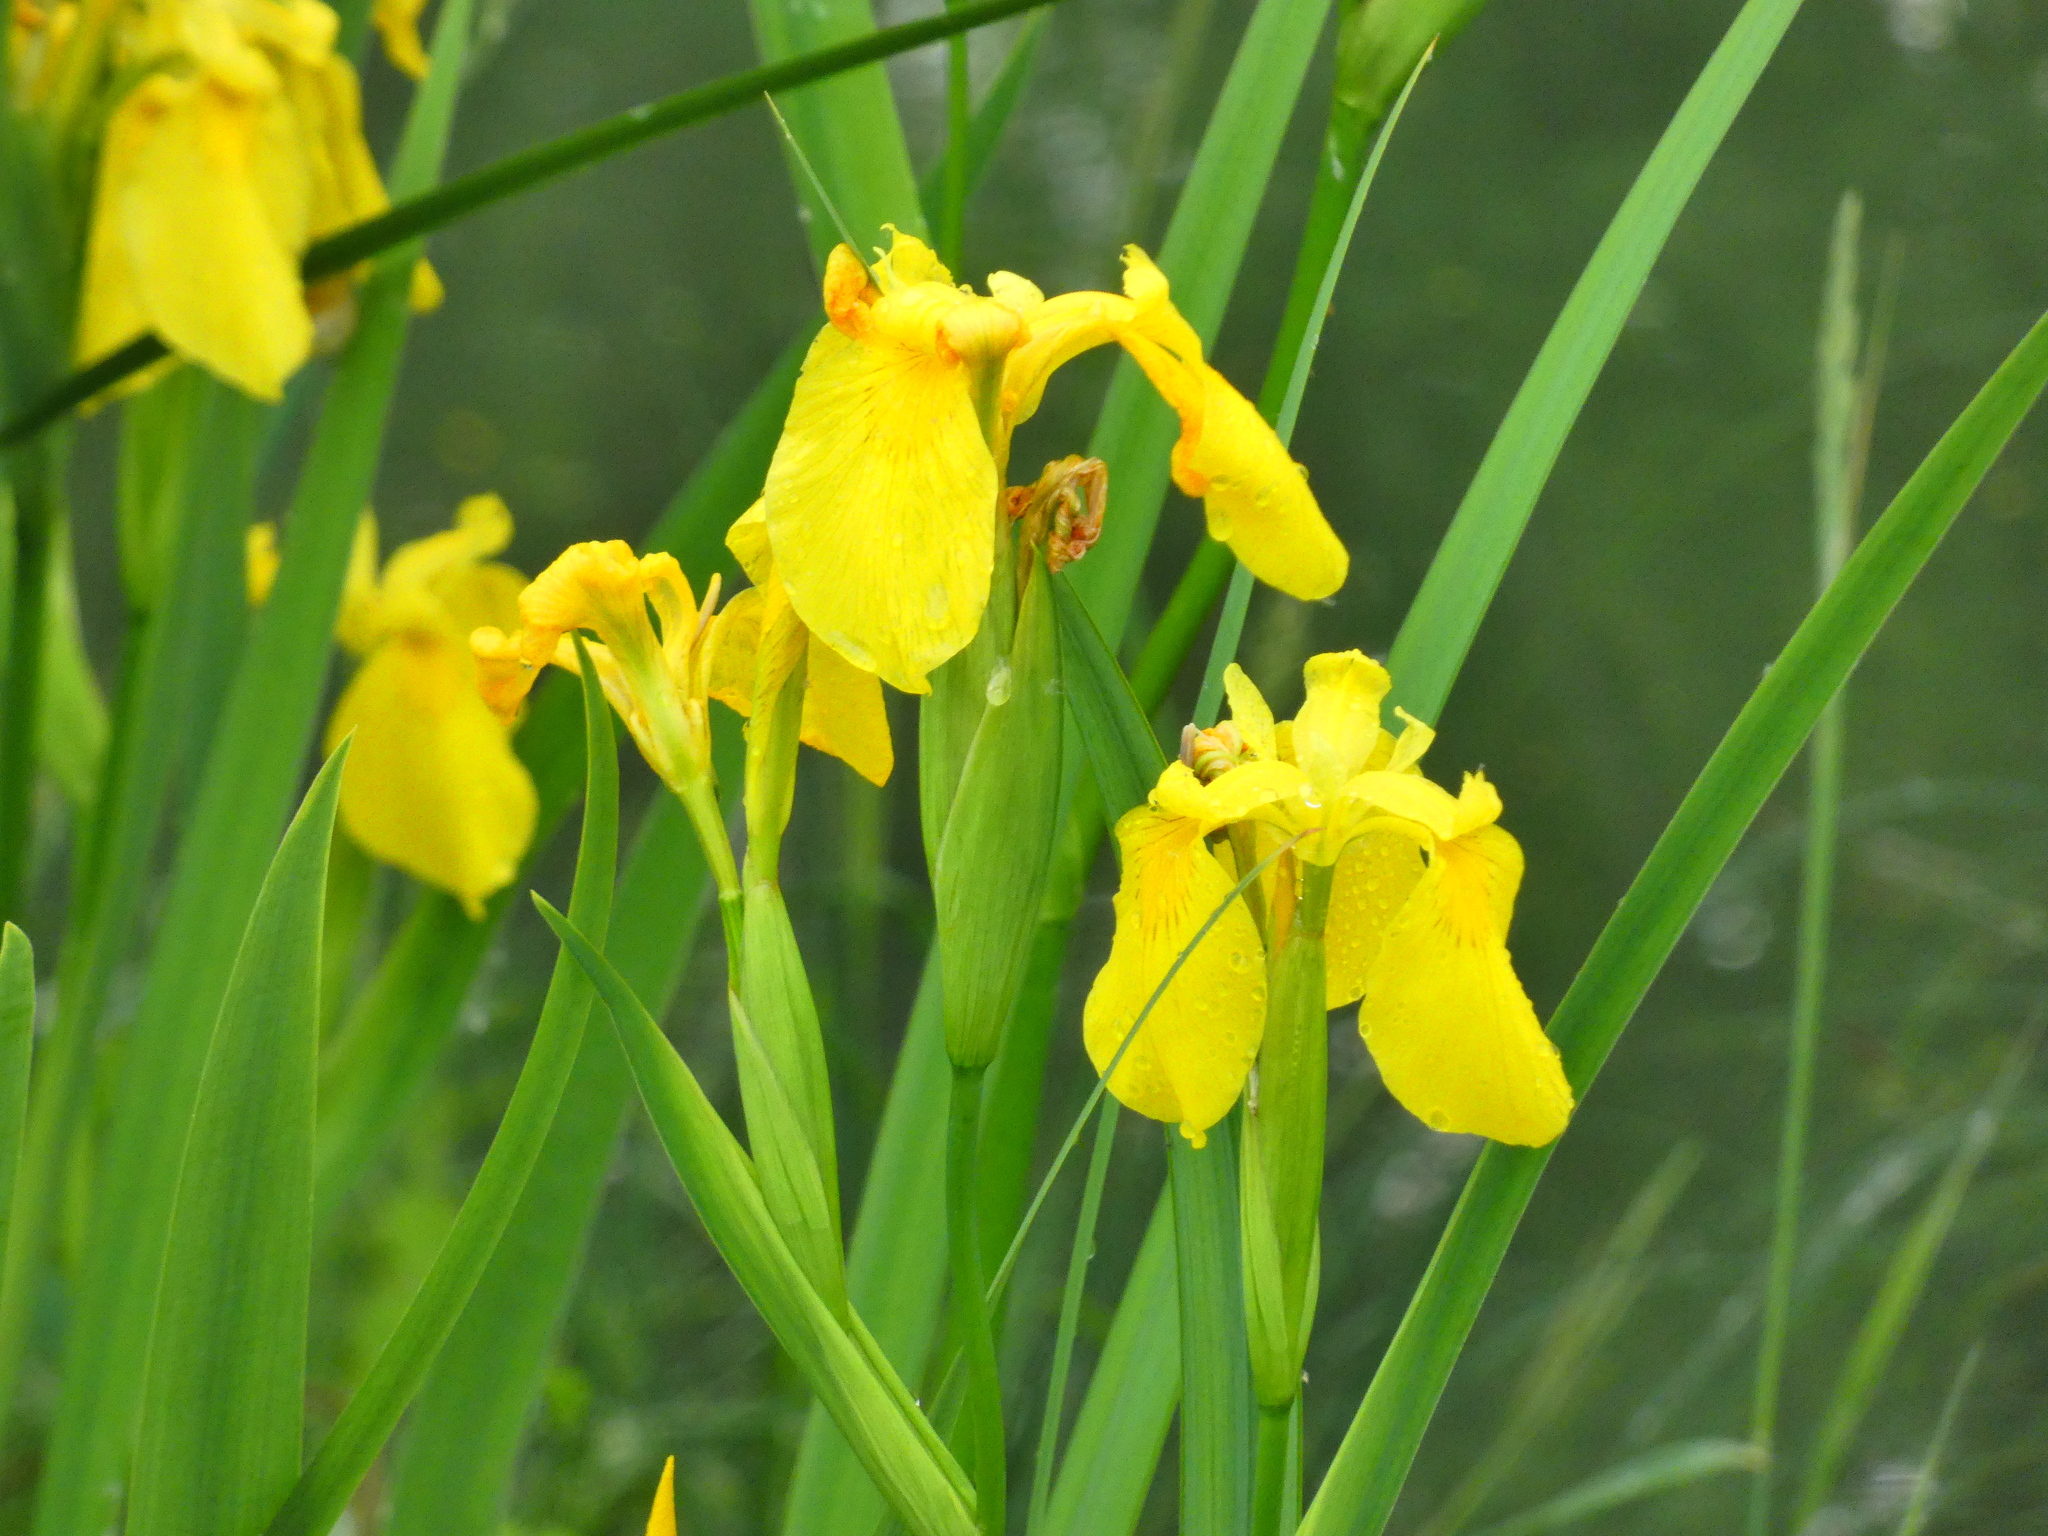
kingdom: Plantae
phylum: Tracheophyta
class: Liliopsida
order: Asparagales
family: Iridaceae
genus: Iris
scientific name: Iris pseudacorus
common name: Yellow flag
